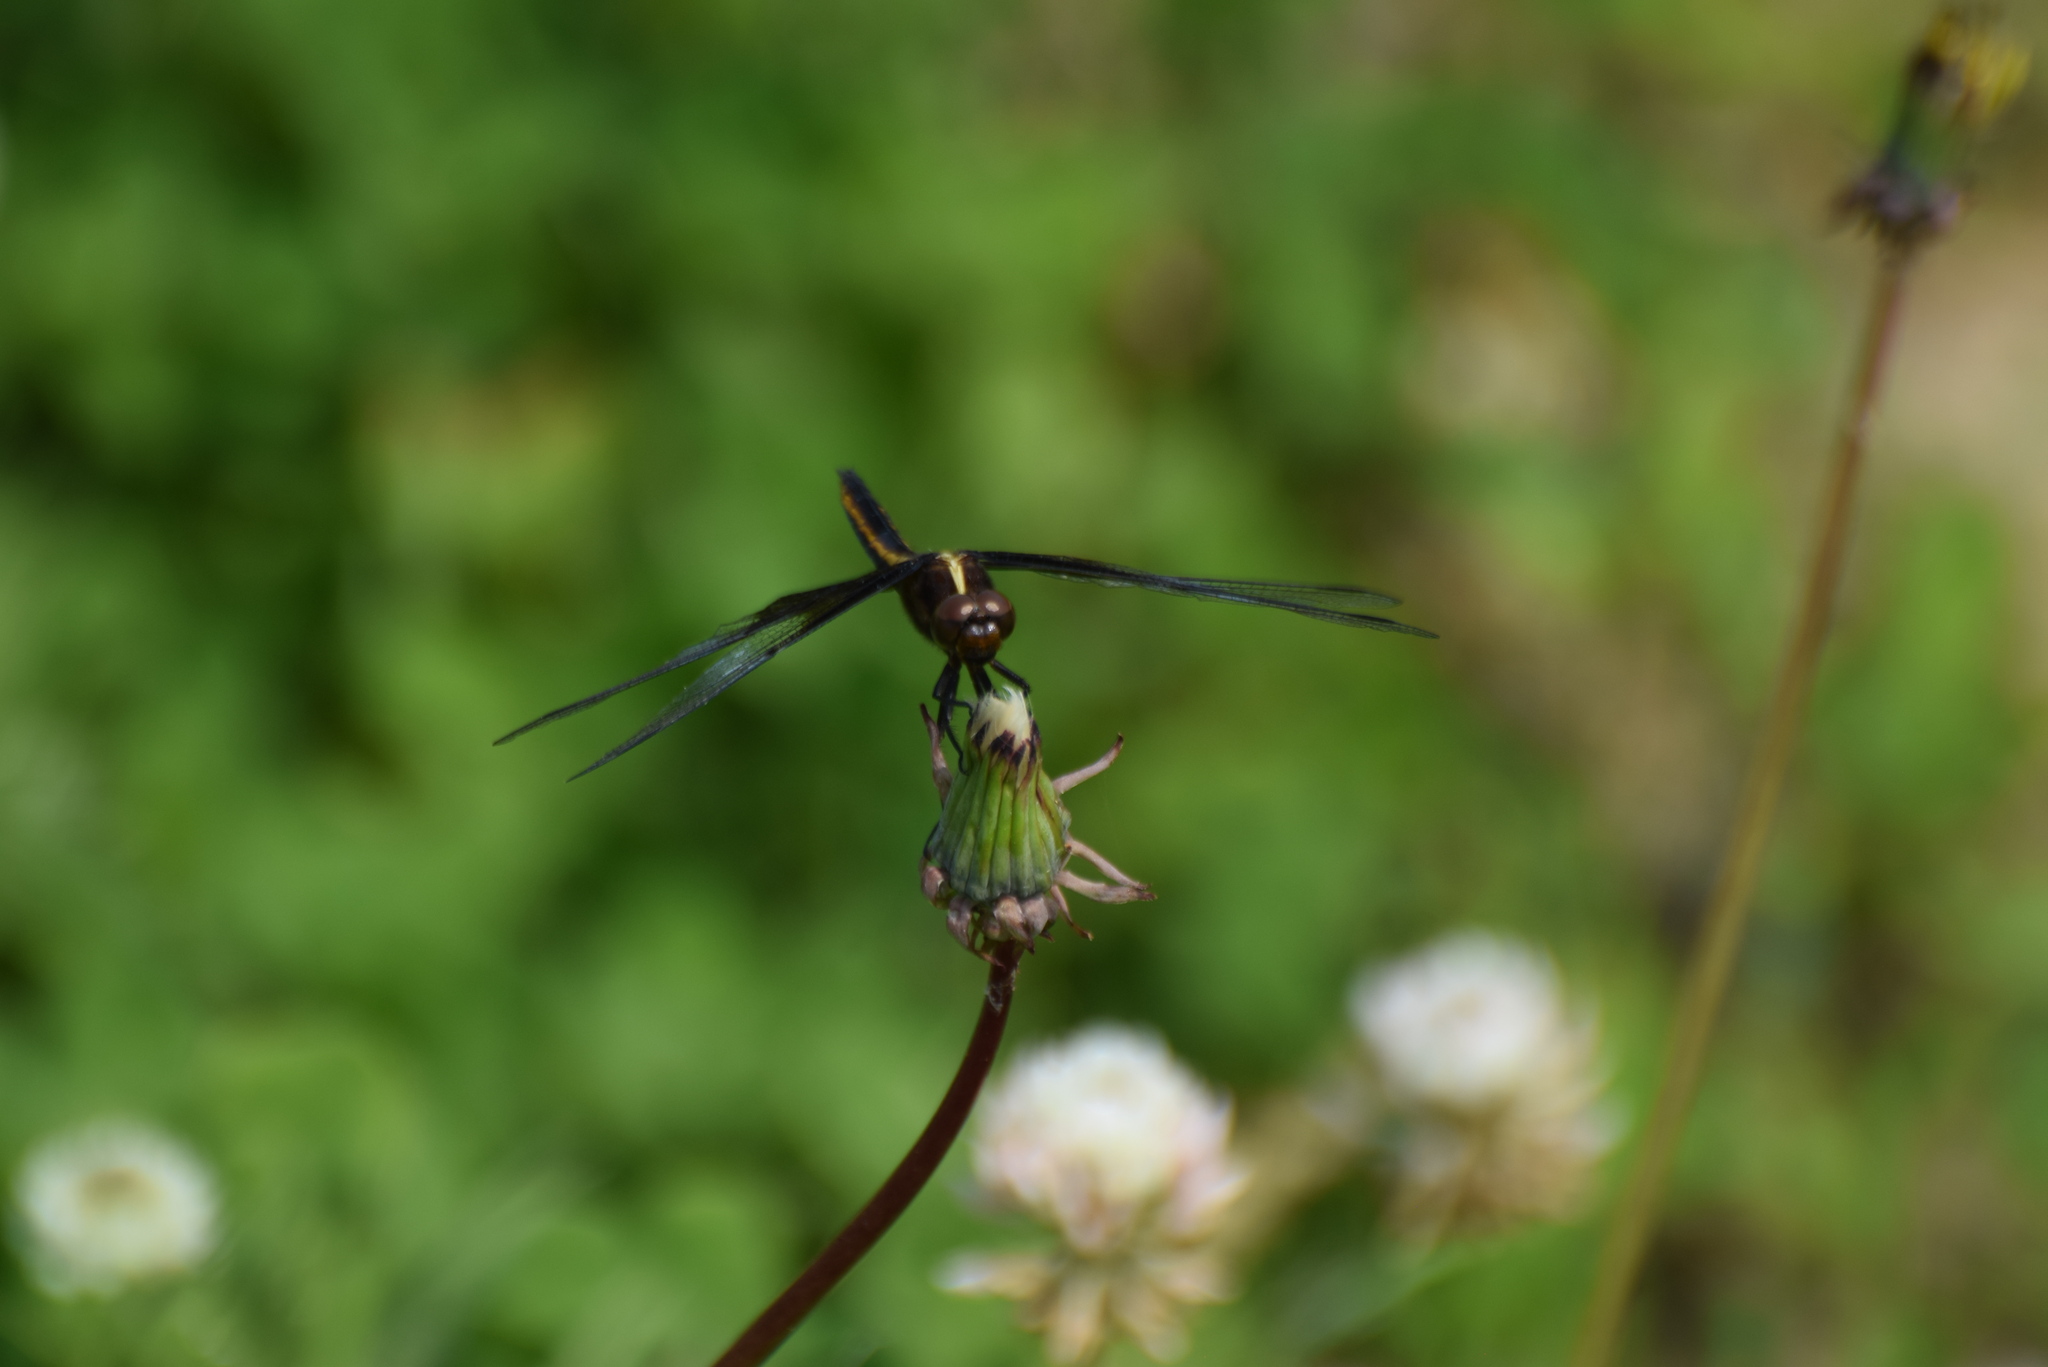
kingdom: Animalia
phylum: Arthropoda
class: Insecta
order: Odonata
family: Libellulidae
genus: Libellula
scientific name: Libellula luctuosa
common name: Widow skimmer
